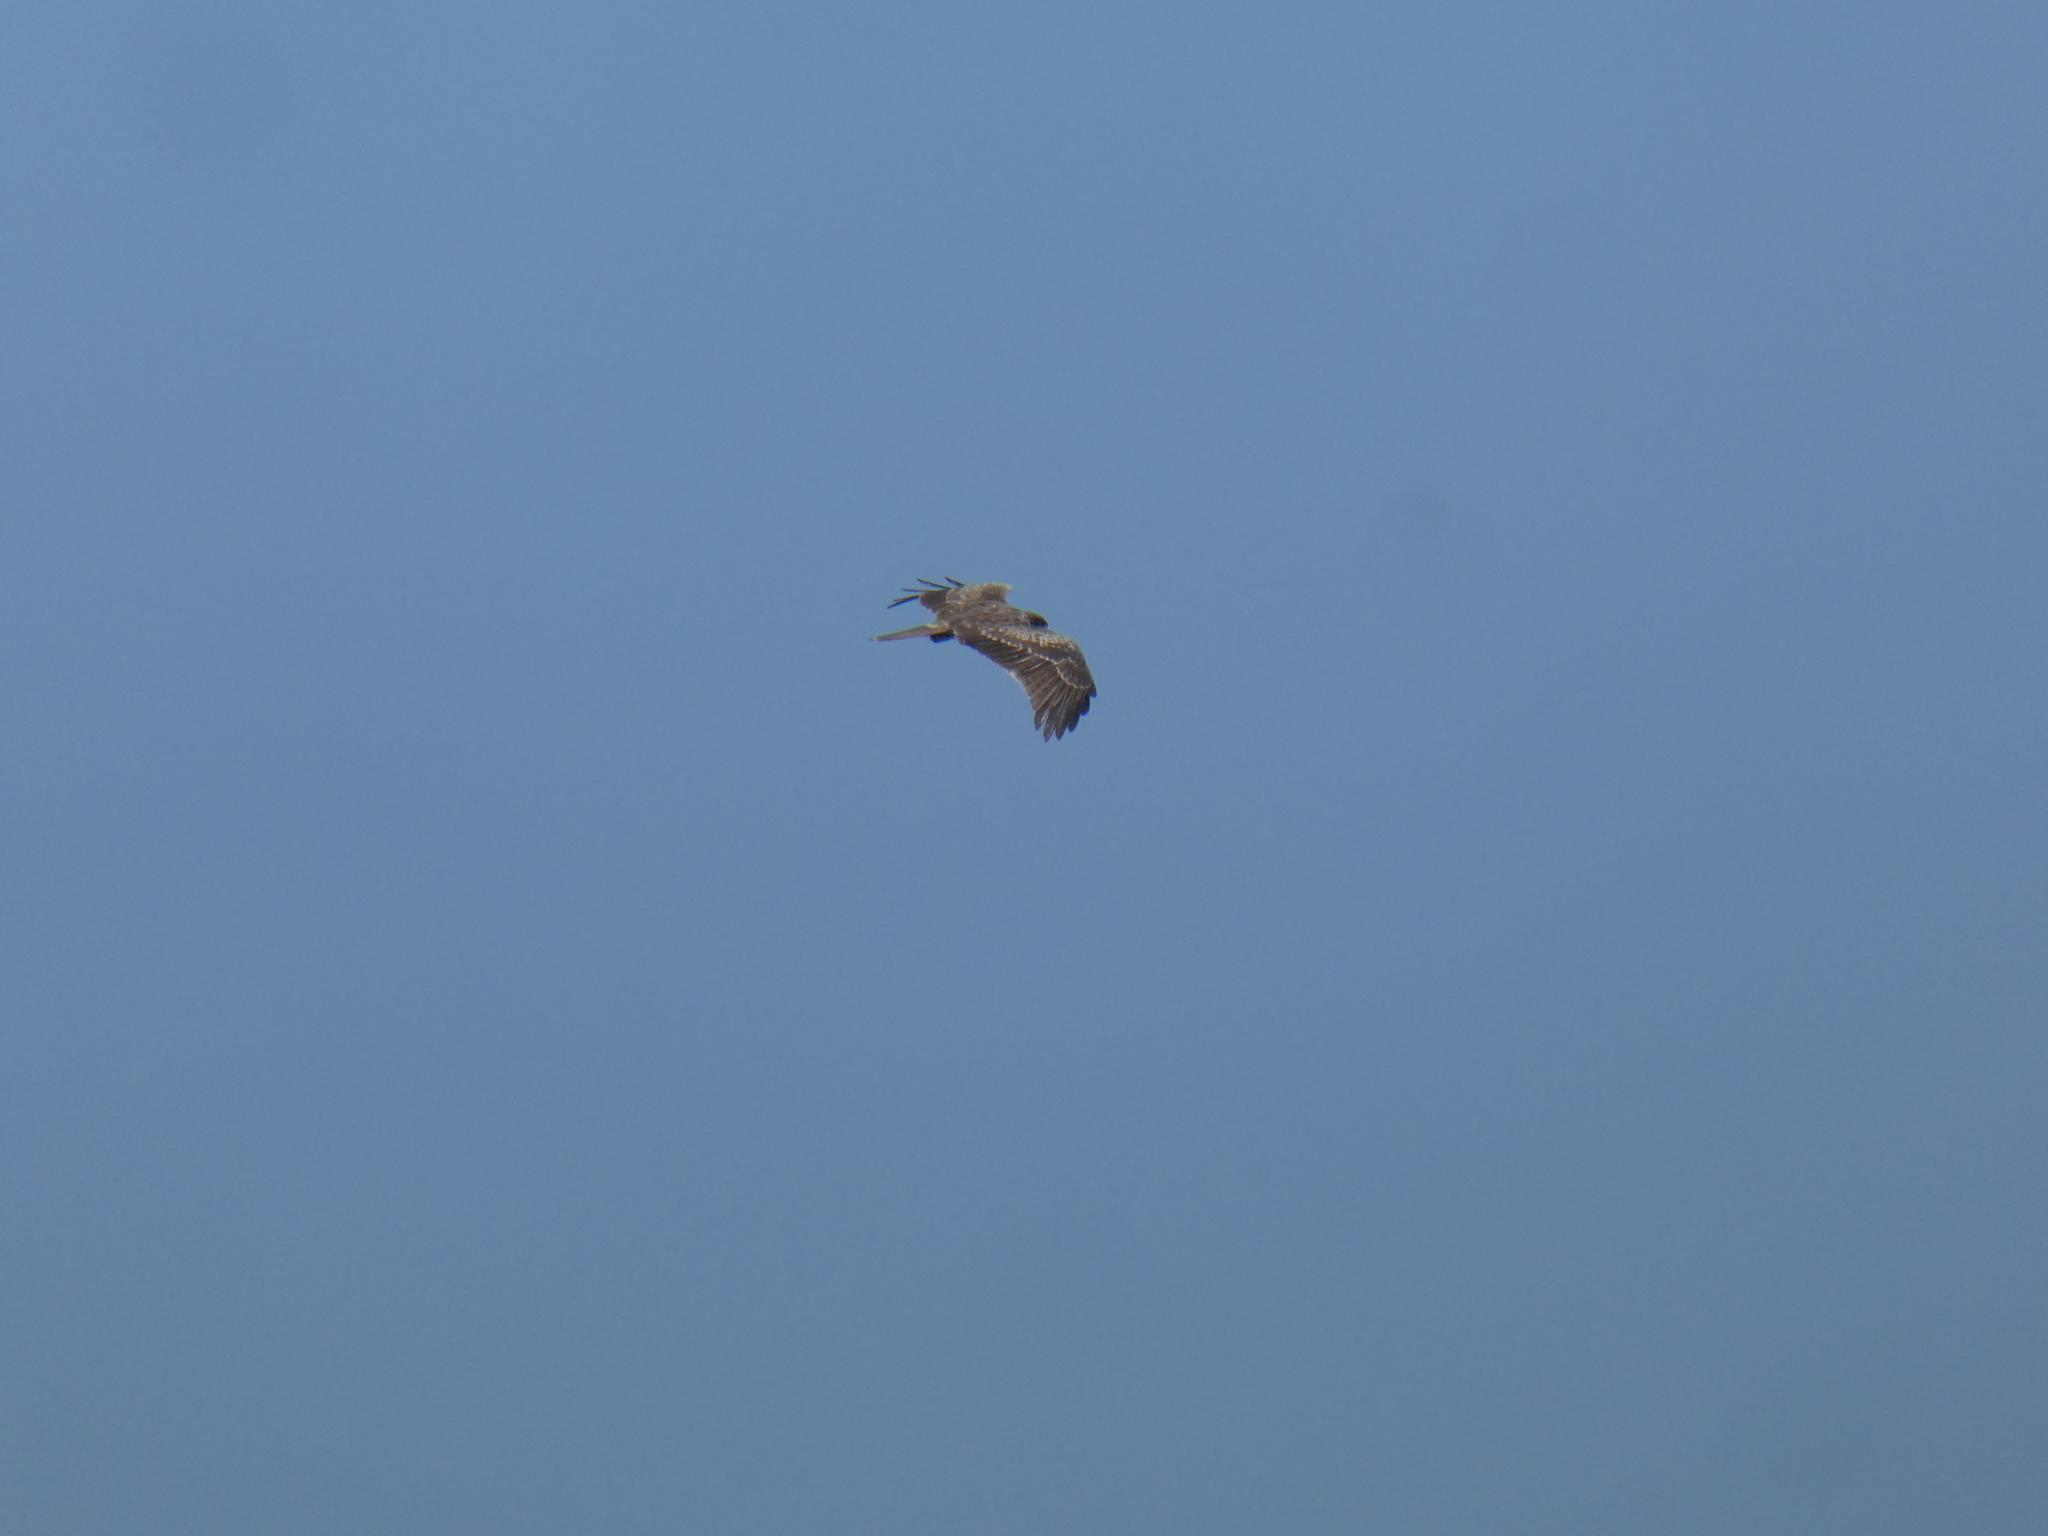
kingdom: Animalia
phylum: Chordata
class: Aves
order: Accipitriformes
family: Accipitridae
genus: Milvus
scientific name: Milvus migrans
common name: Black kite
